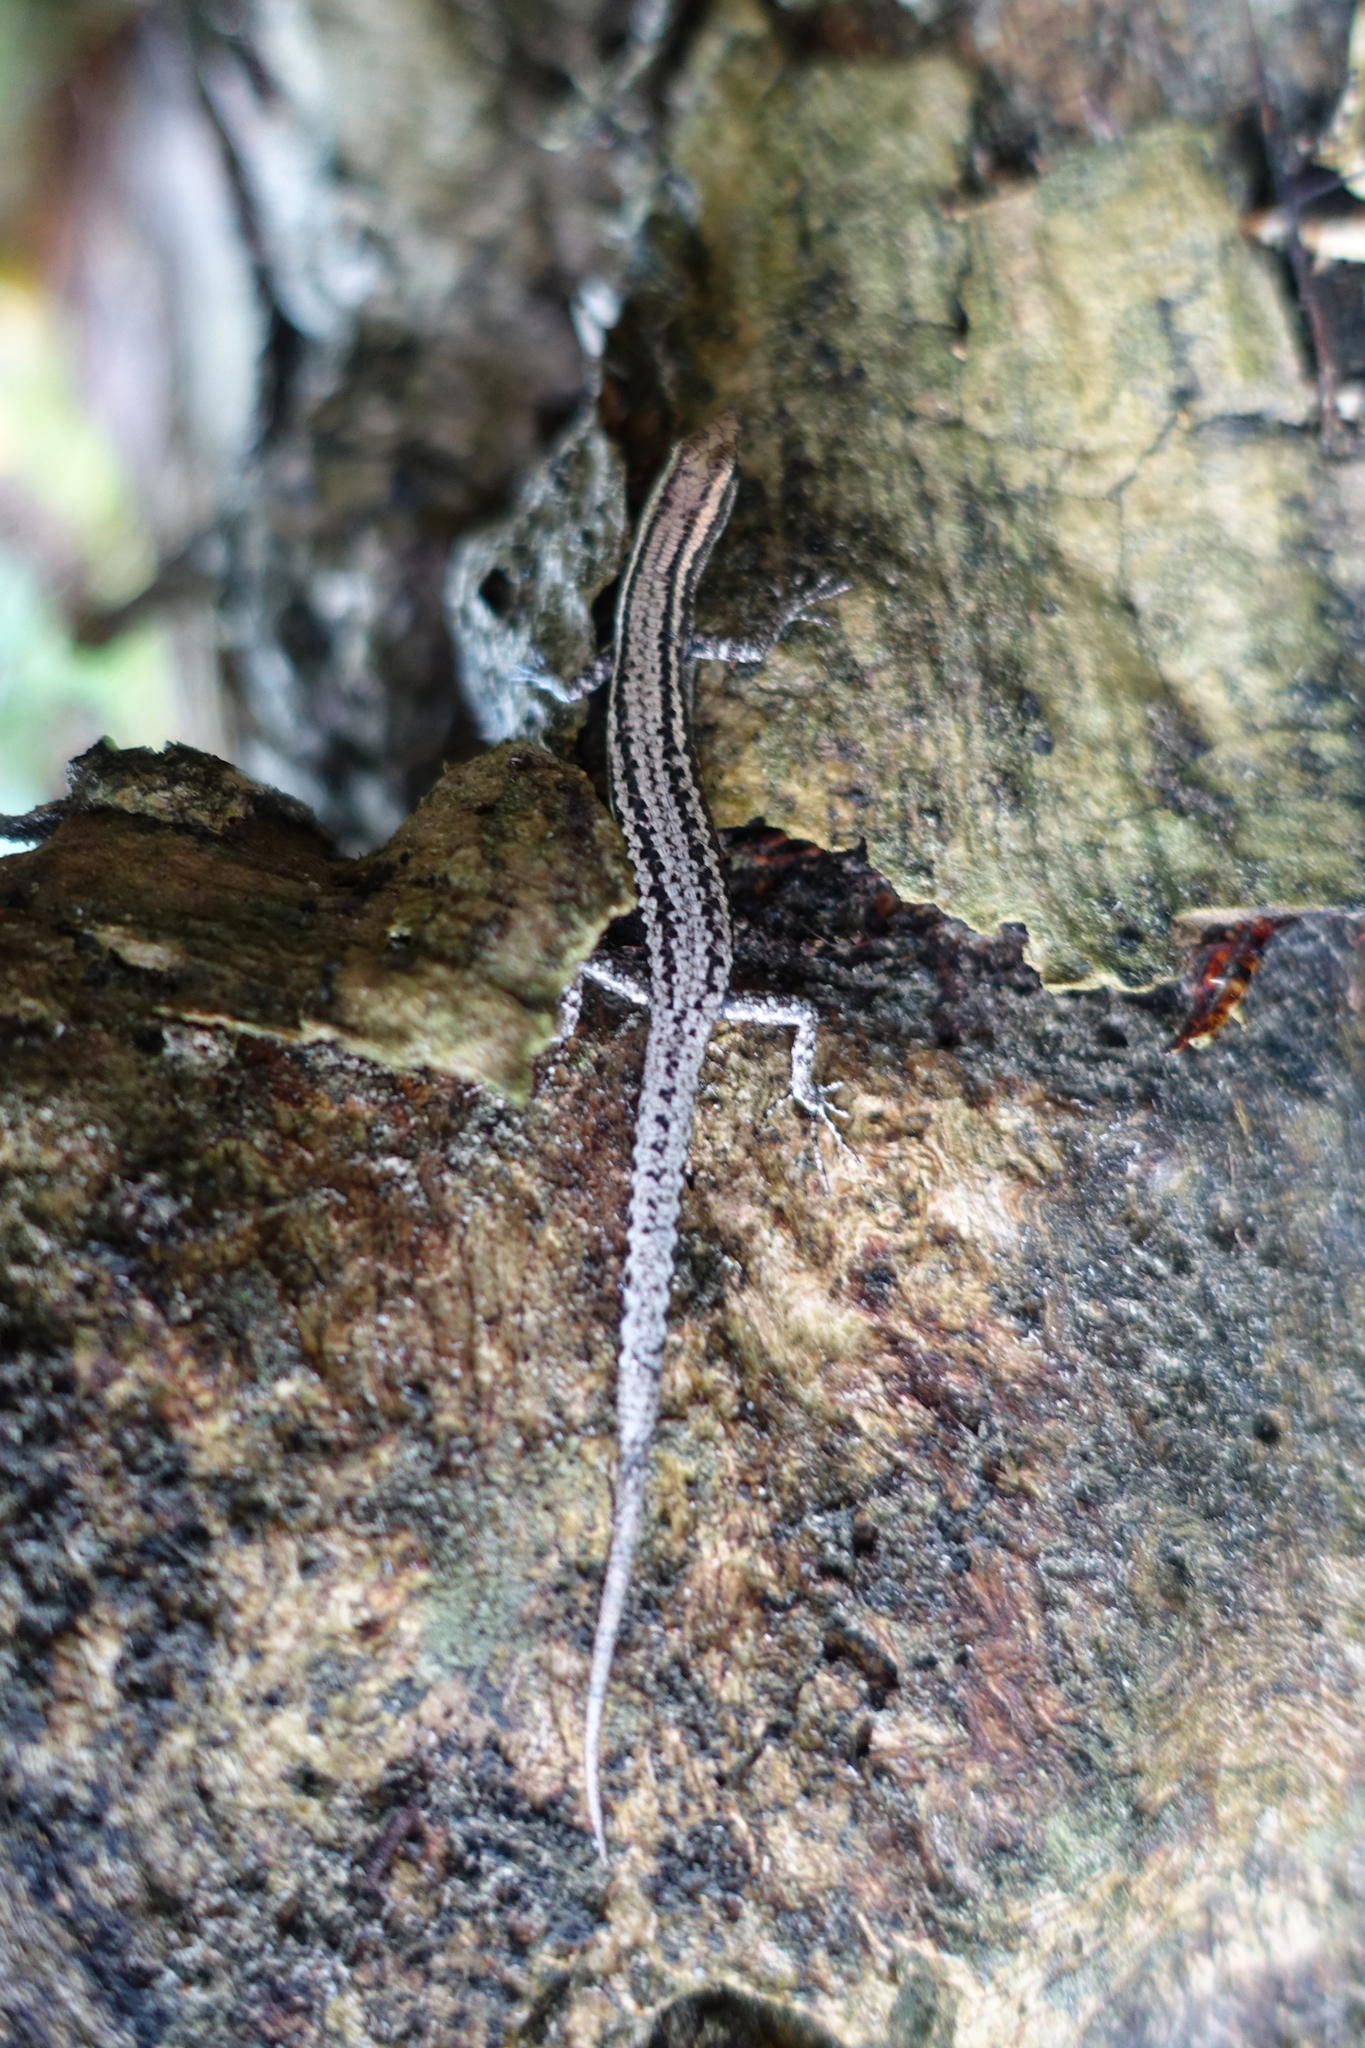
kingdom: Animalia
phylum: Chordata
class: Squamata
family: Scincidae
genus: Cryptoblepharus
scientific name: Cryptoblepharus novaeguineae
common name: New guinea snake-eyed skink
